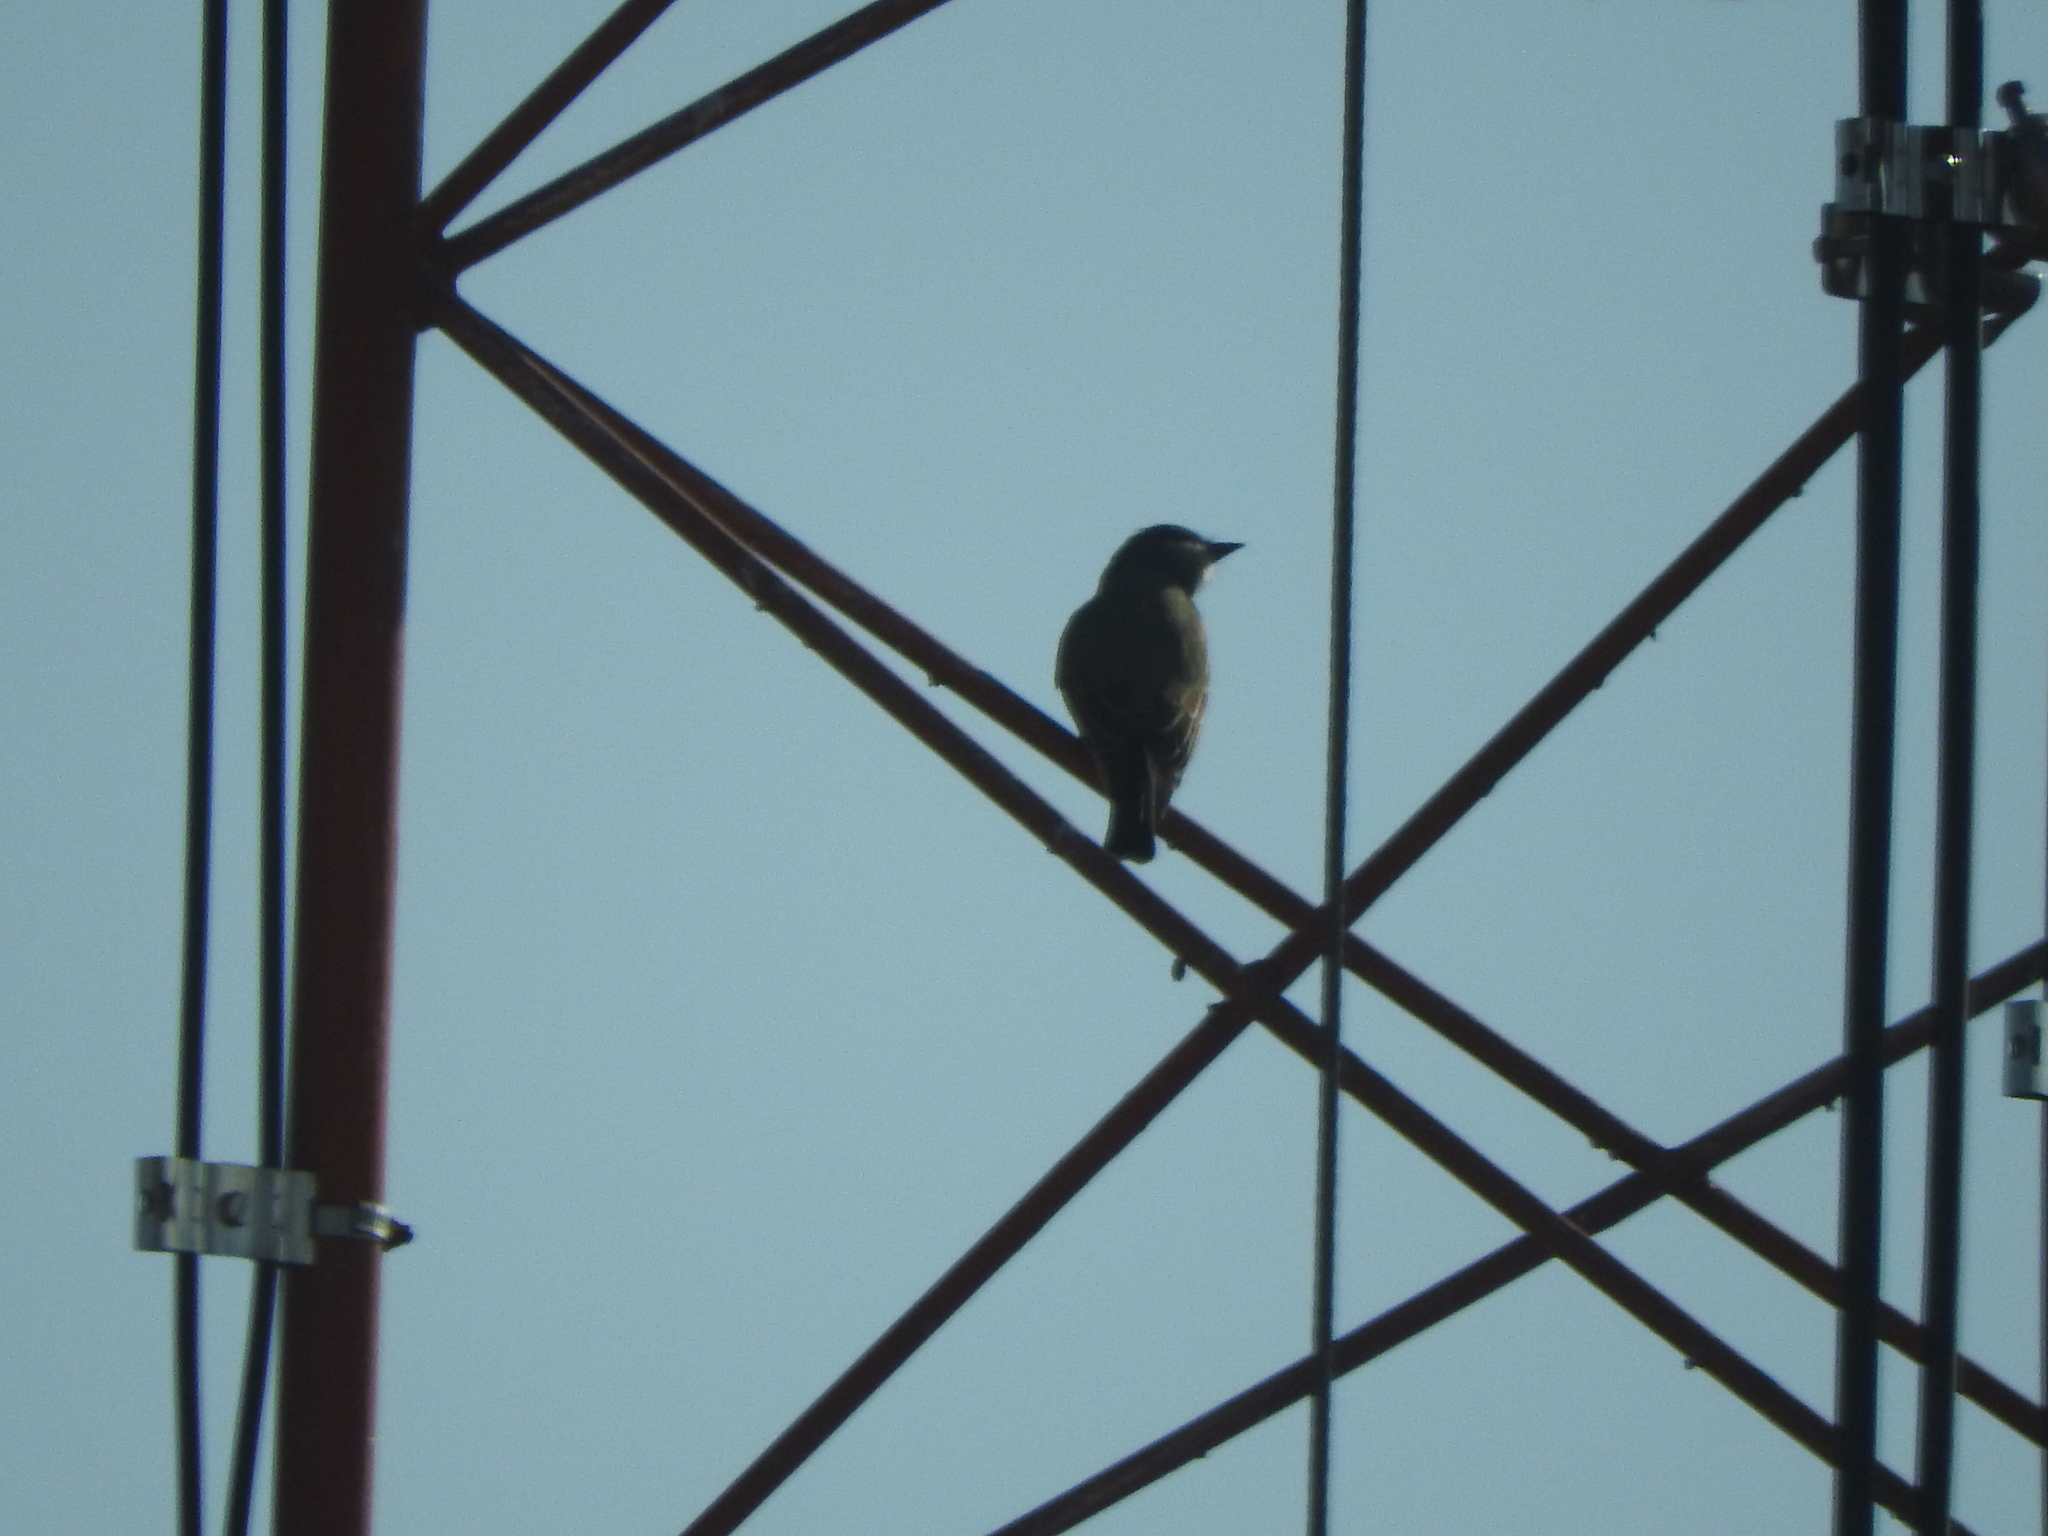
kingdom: Animalia
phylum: Chordata
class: Aves
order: Passeriformes
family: Tyrannidae
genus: Tyrannus
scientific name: Tyrannus vociferans
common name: Cassin's kingbird
